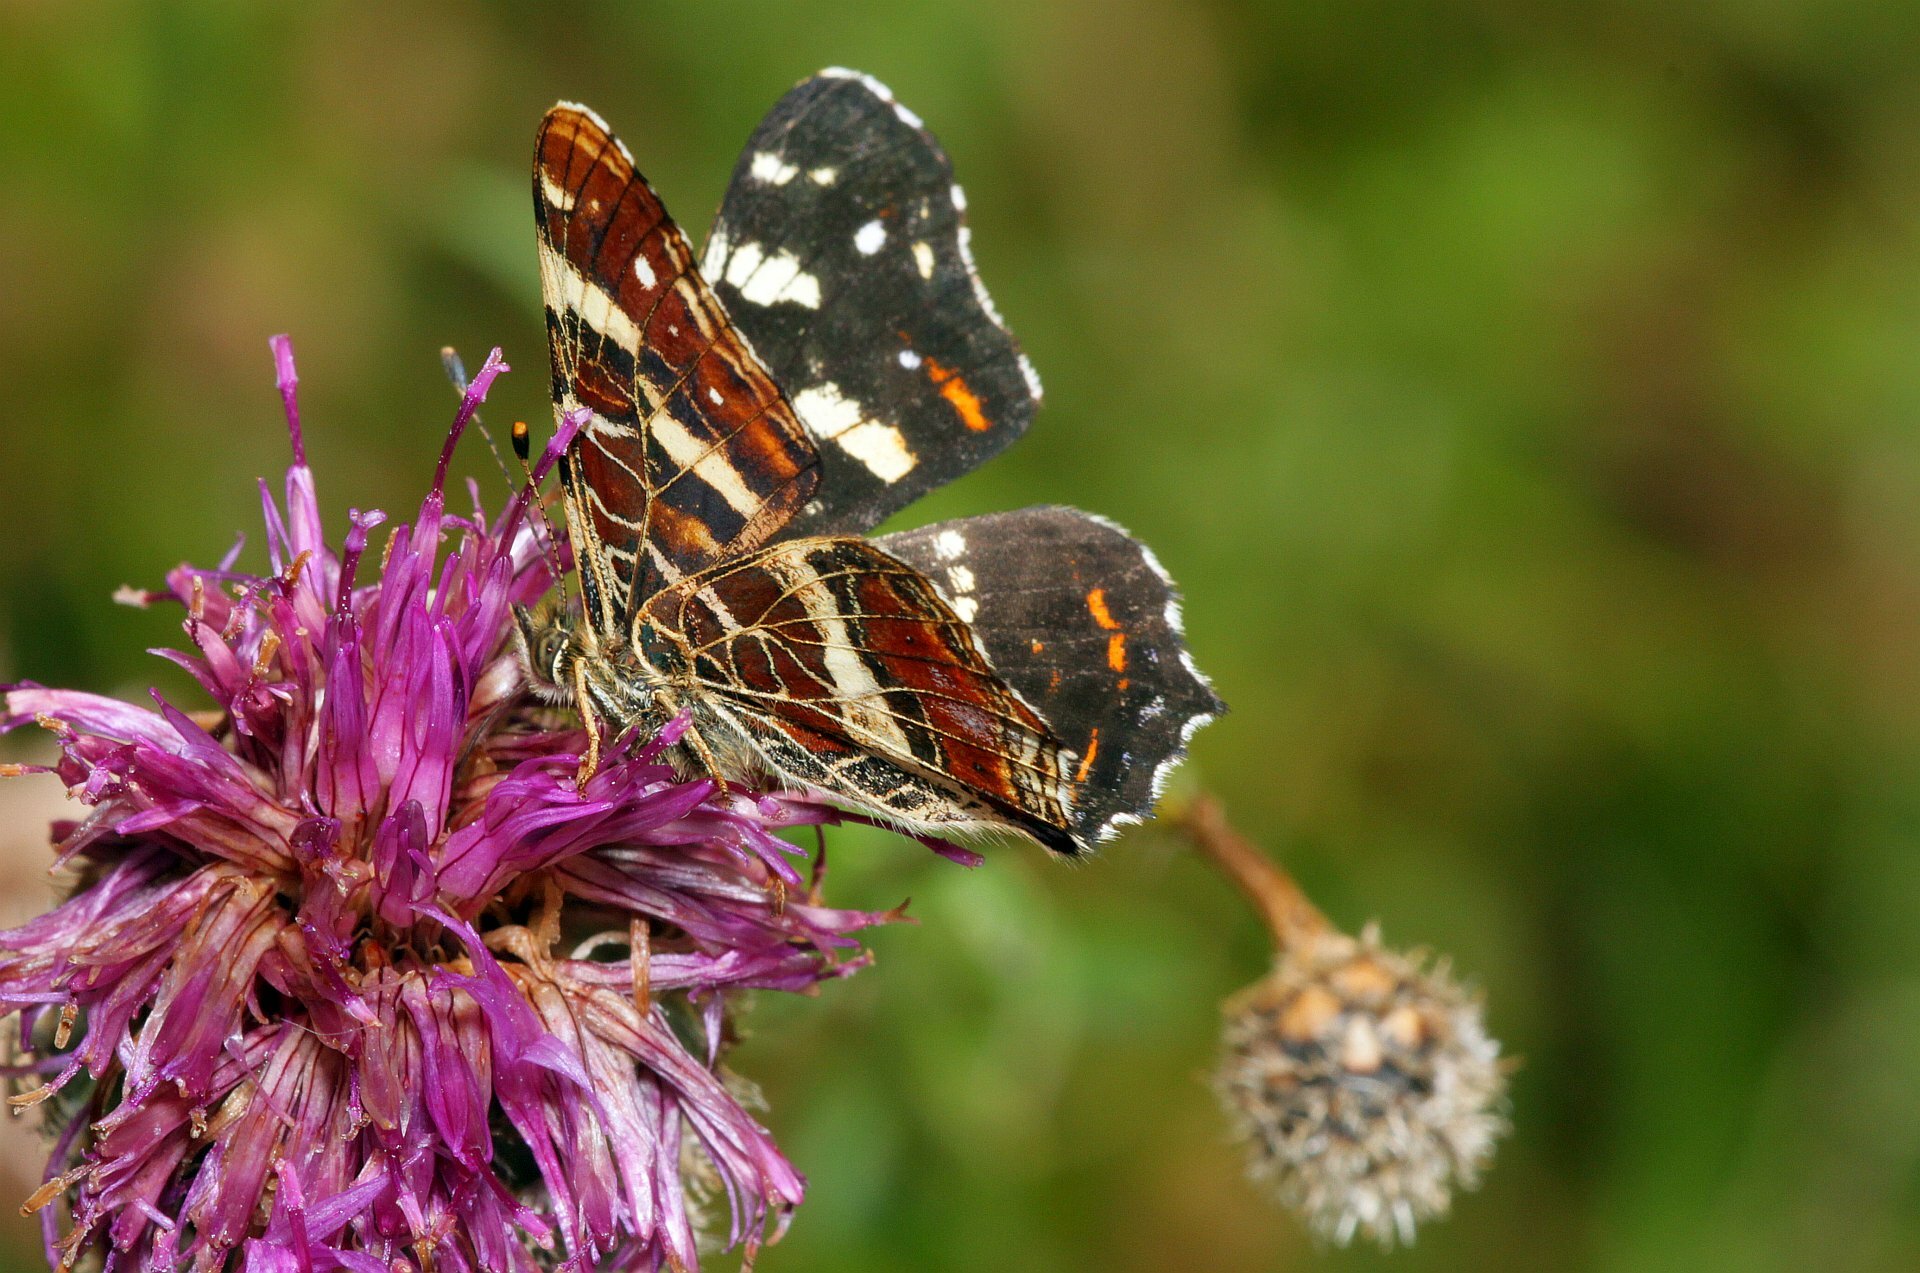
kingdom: Animalia
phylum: Arthropoda
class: Insecta
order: Lepidoptera
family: Nymphalidae
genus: Araschnia
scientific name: Araschnia levana
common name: Map butterfly
